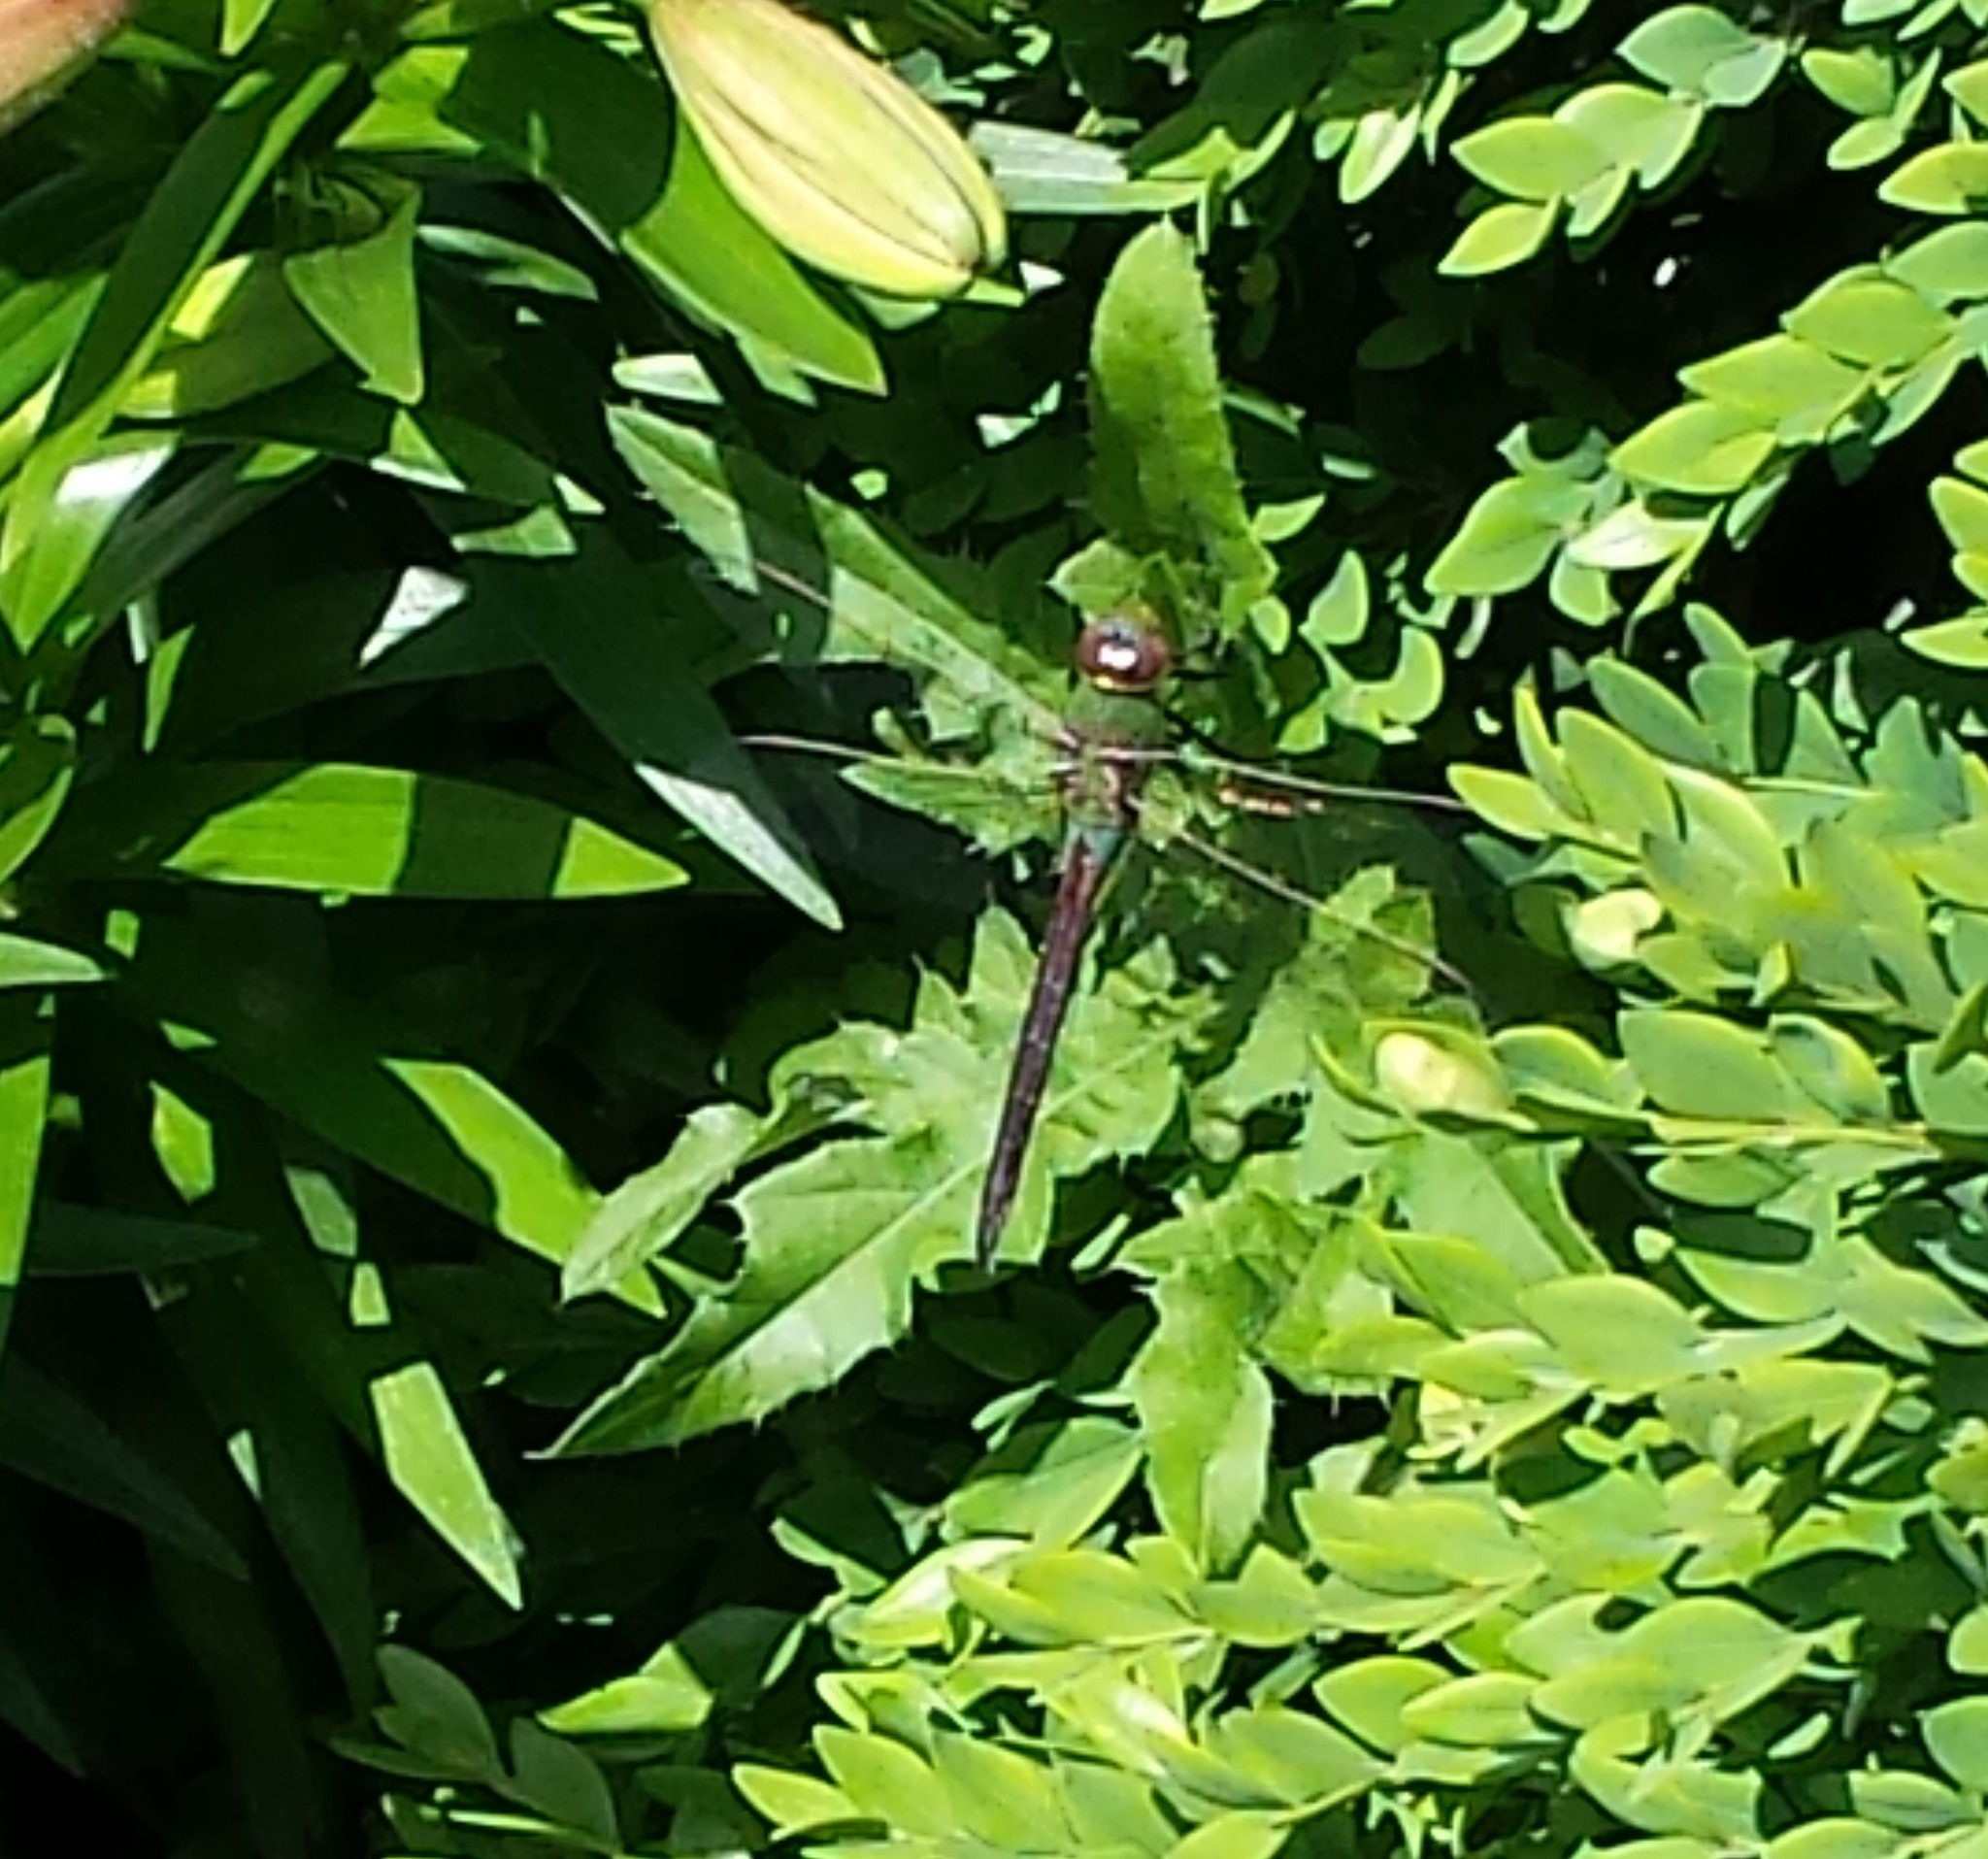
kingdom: Animalia
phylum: Arthropoda
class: Insecta
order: Odonata
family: Aeshnidae
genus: Anax
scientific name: Anax junius
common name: Common green darner
